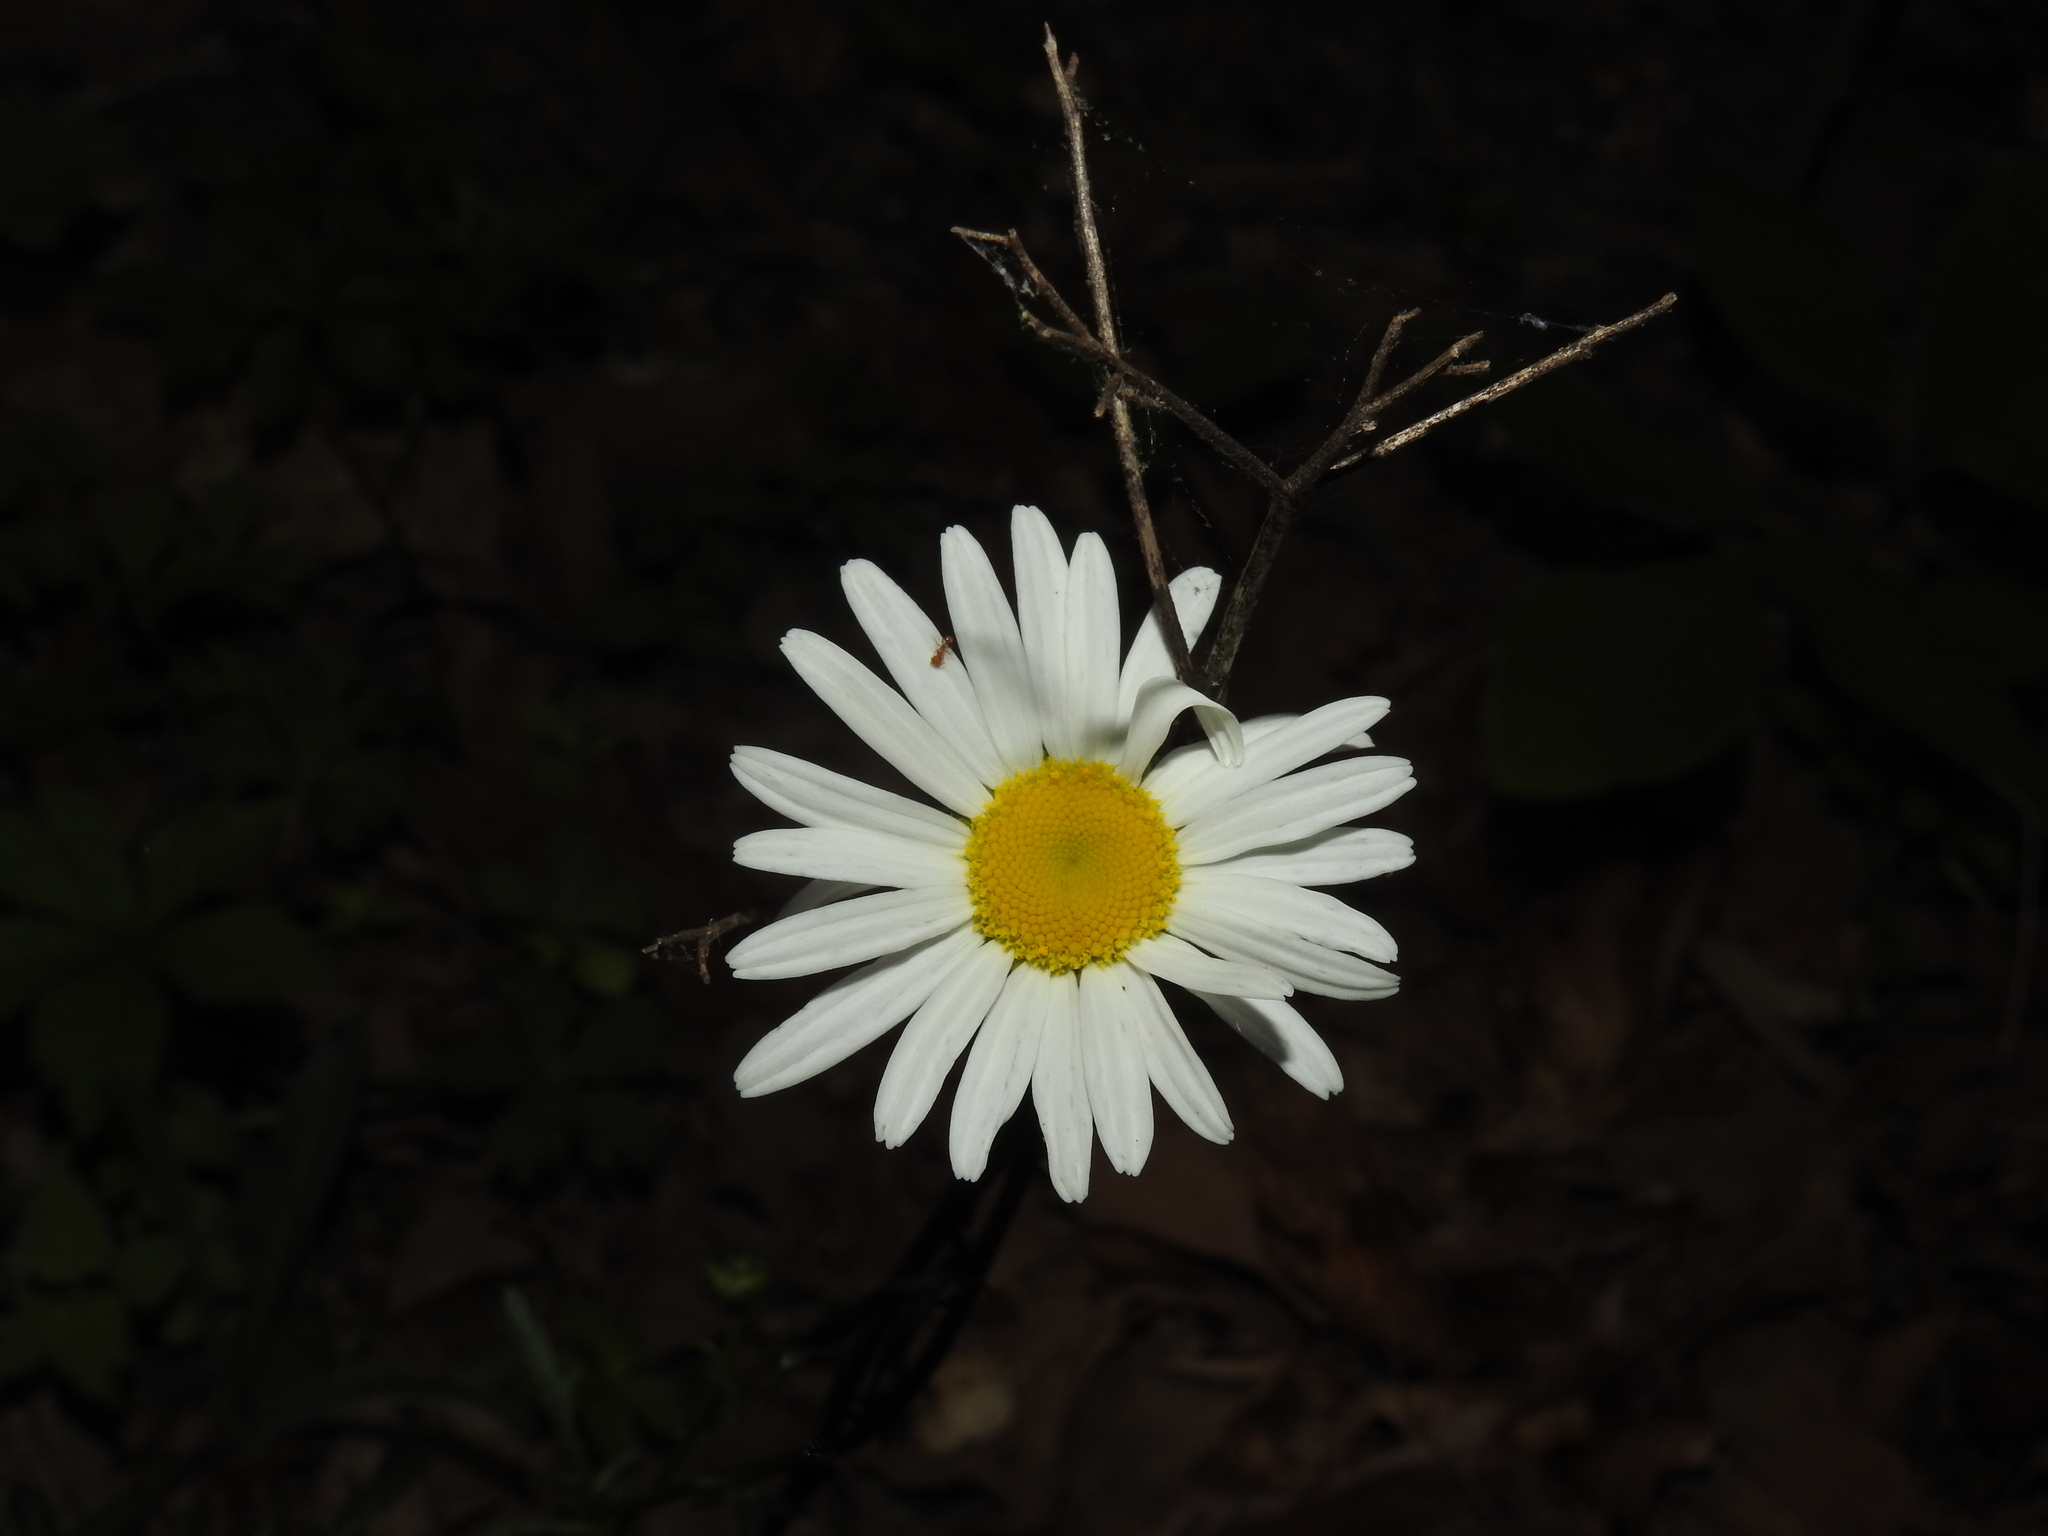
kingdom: Plantae
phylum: Tracheophyta
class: Magnoliopsida
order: Asterales
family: Asteraceae
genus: Leucanthemum
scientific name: Leucanthemum vulgare
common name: Oxeye daisy
